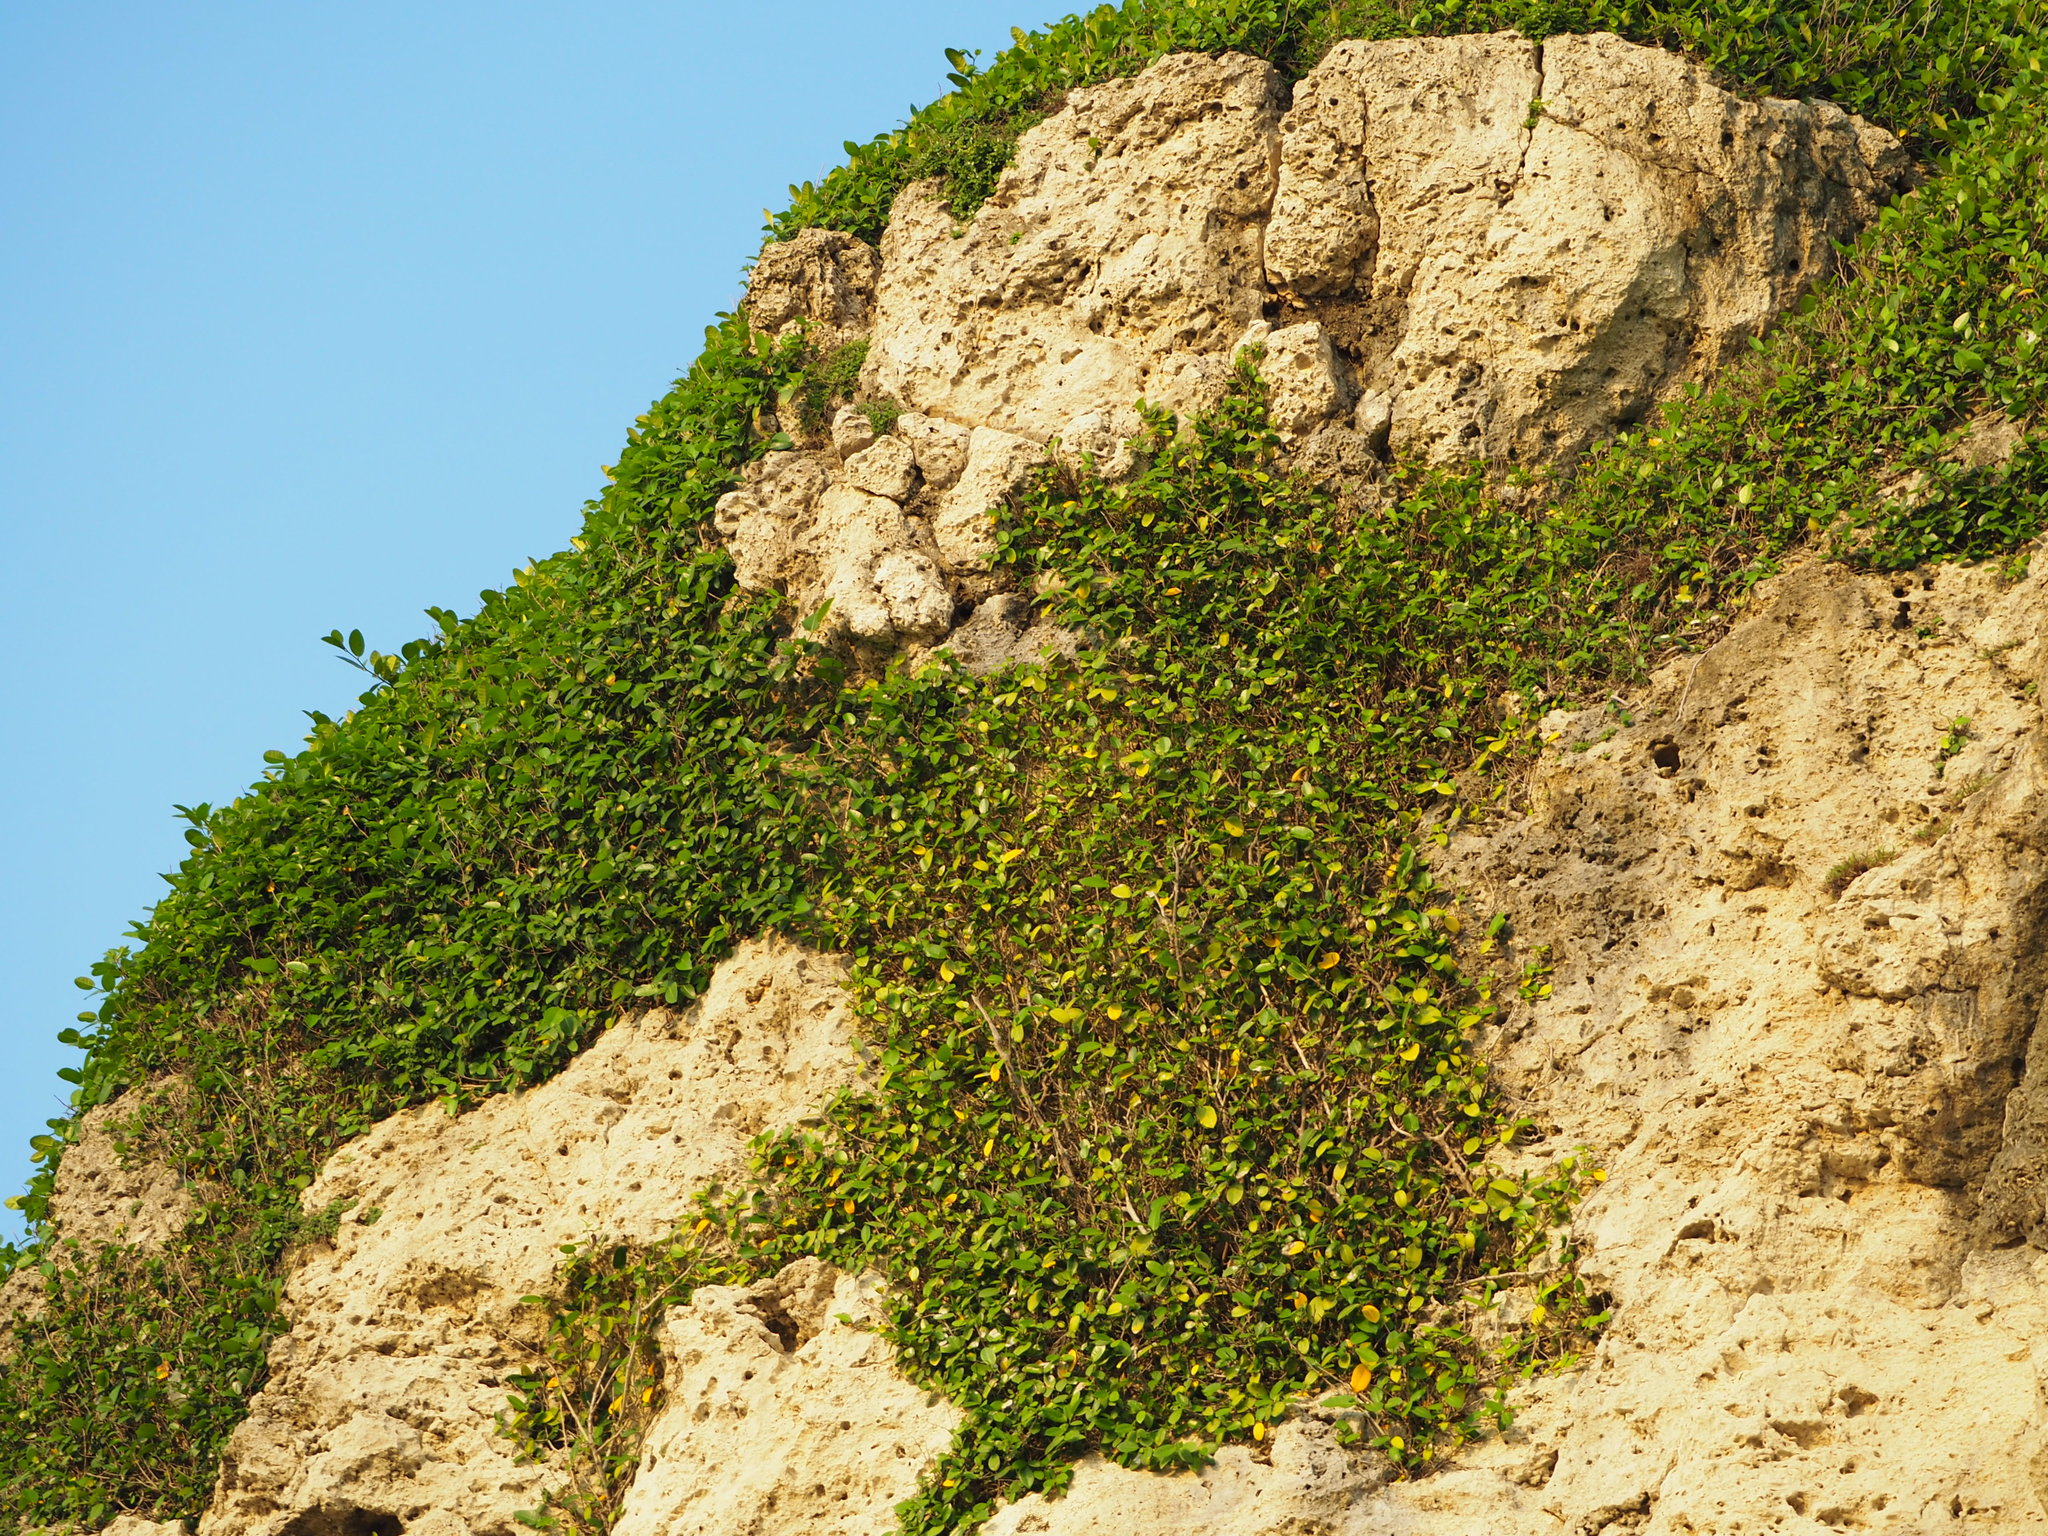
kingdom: Plantae
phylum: Tracheophyta
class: Magnoliopsida
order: Rosales
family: Moraceae
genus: Ficus
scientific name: Ficus tinctoria
